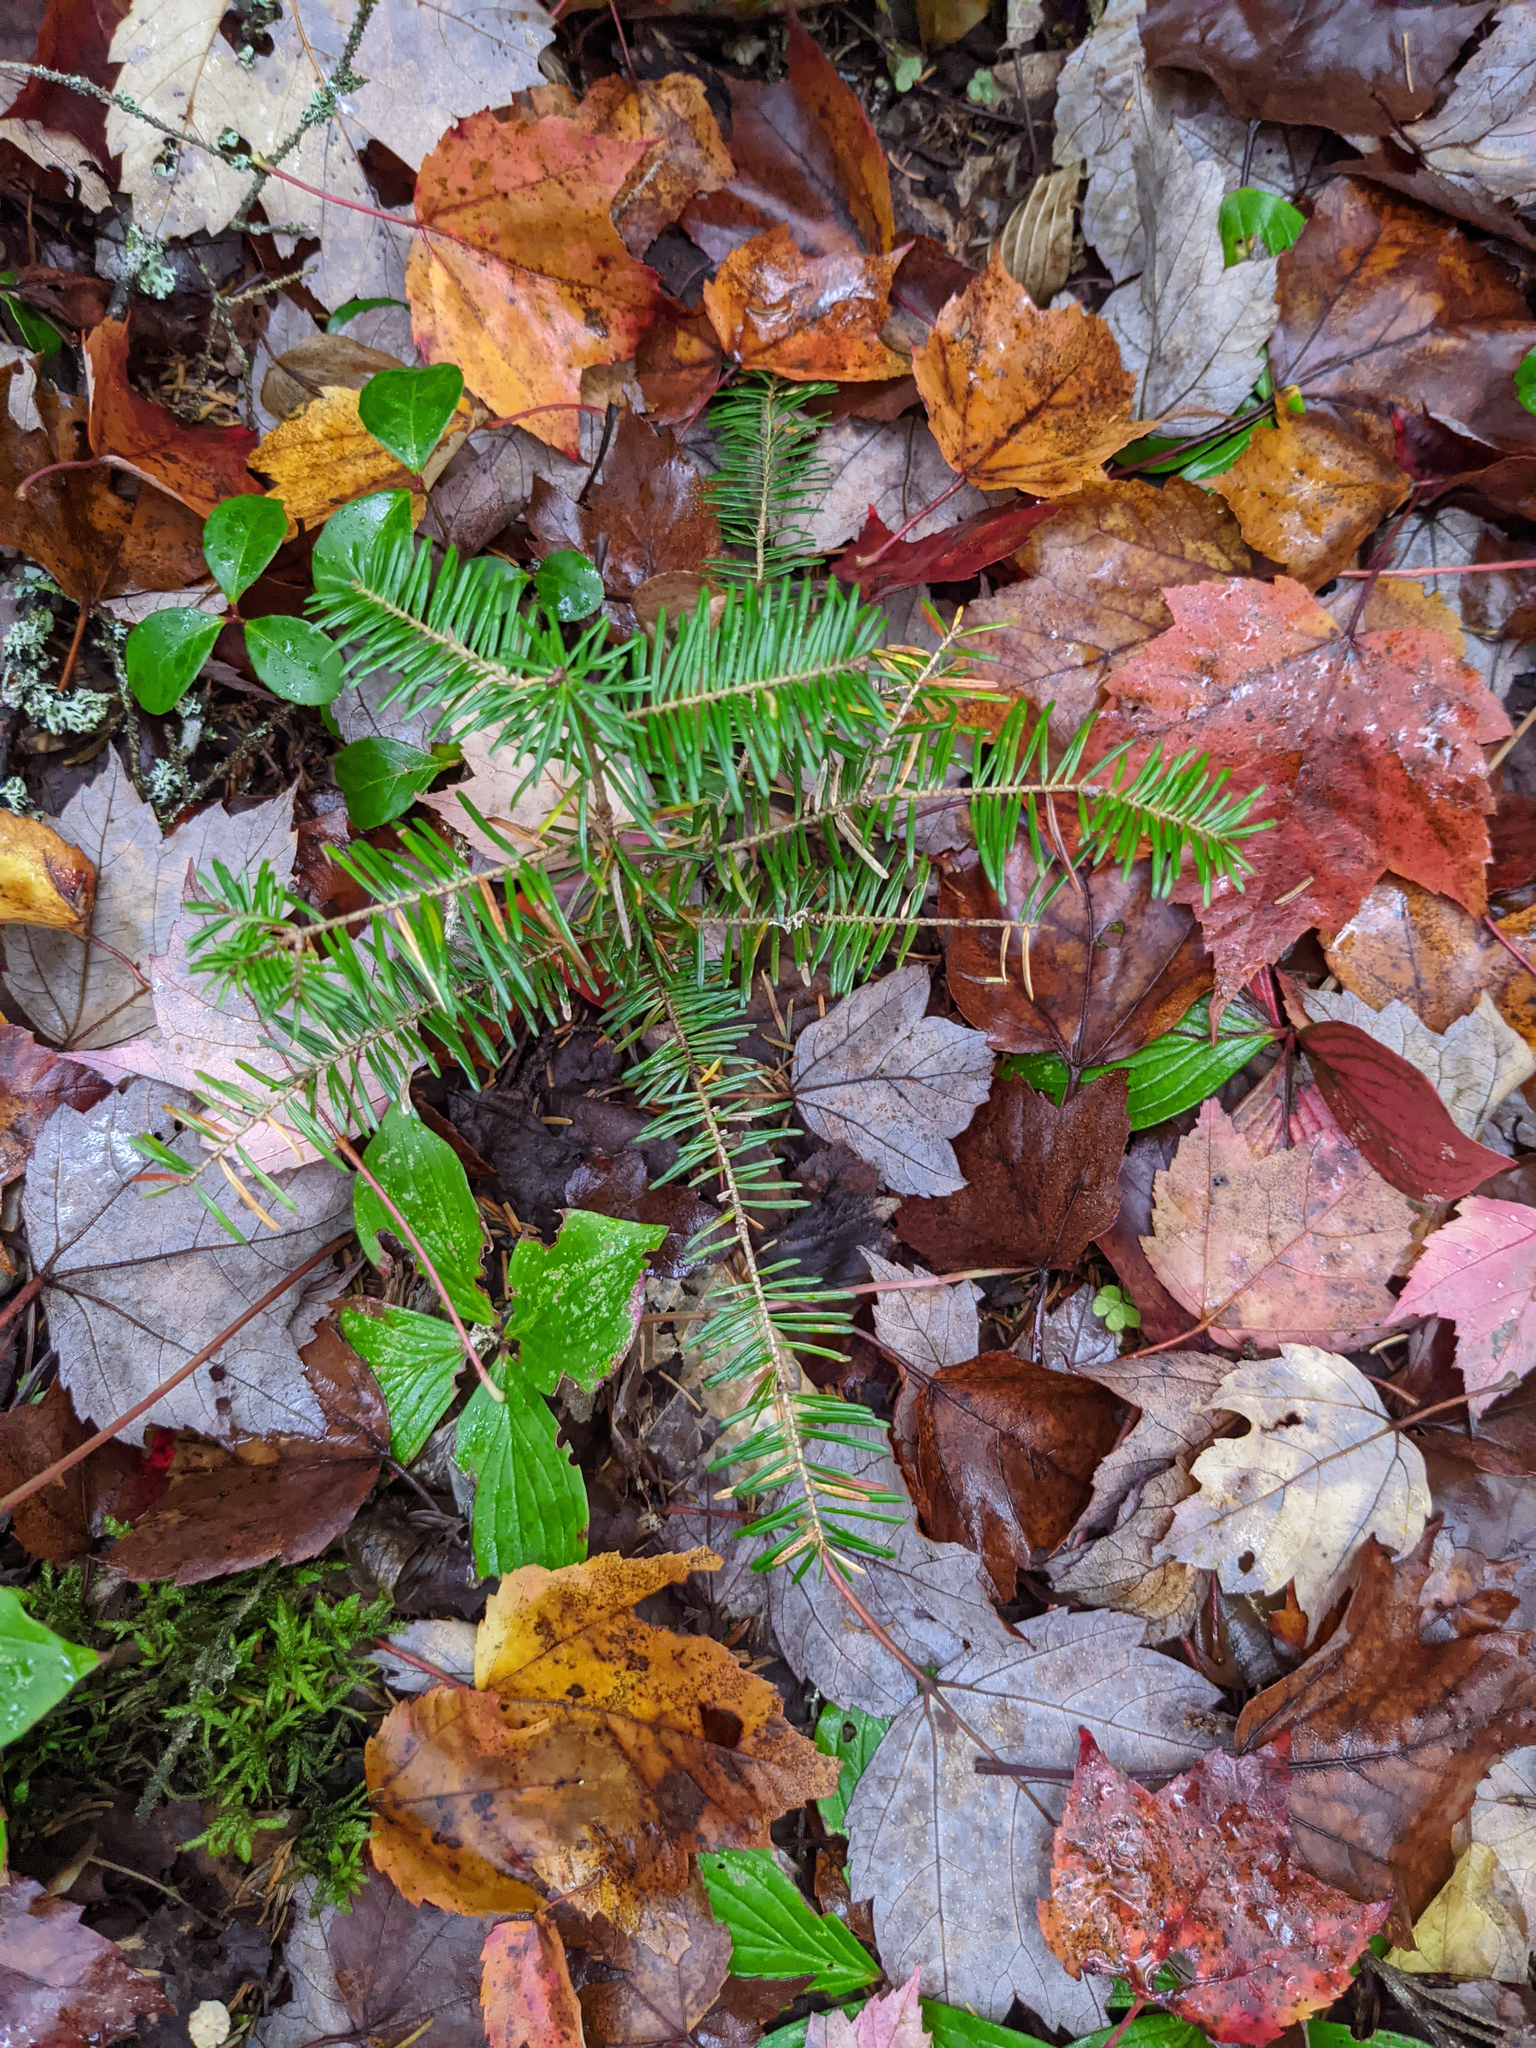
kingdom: Plantae
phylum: Tracheophyta
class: Pinopsida
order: Pinales
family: Pinaceae
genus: Abies
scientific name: Abies balsamea
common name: Balsam fir
